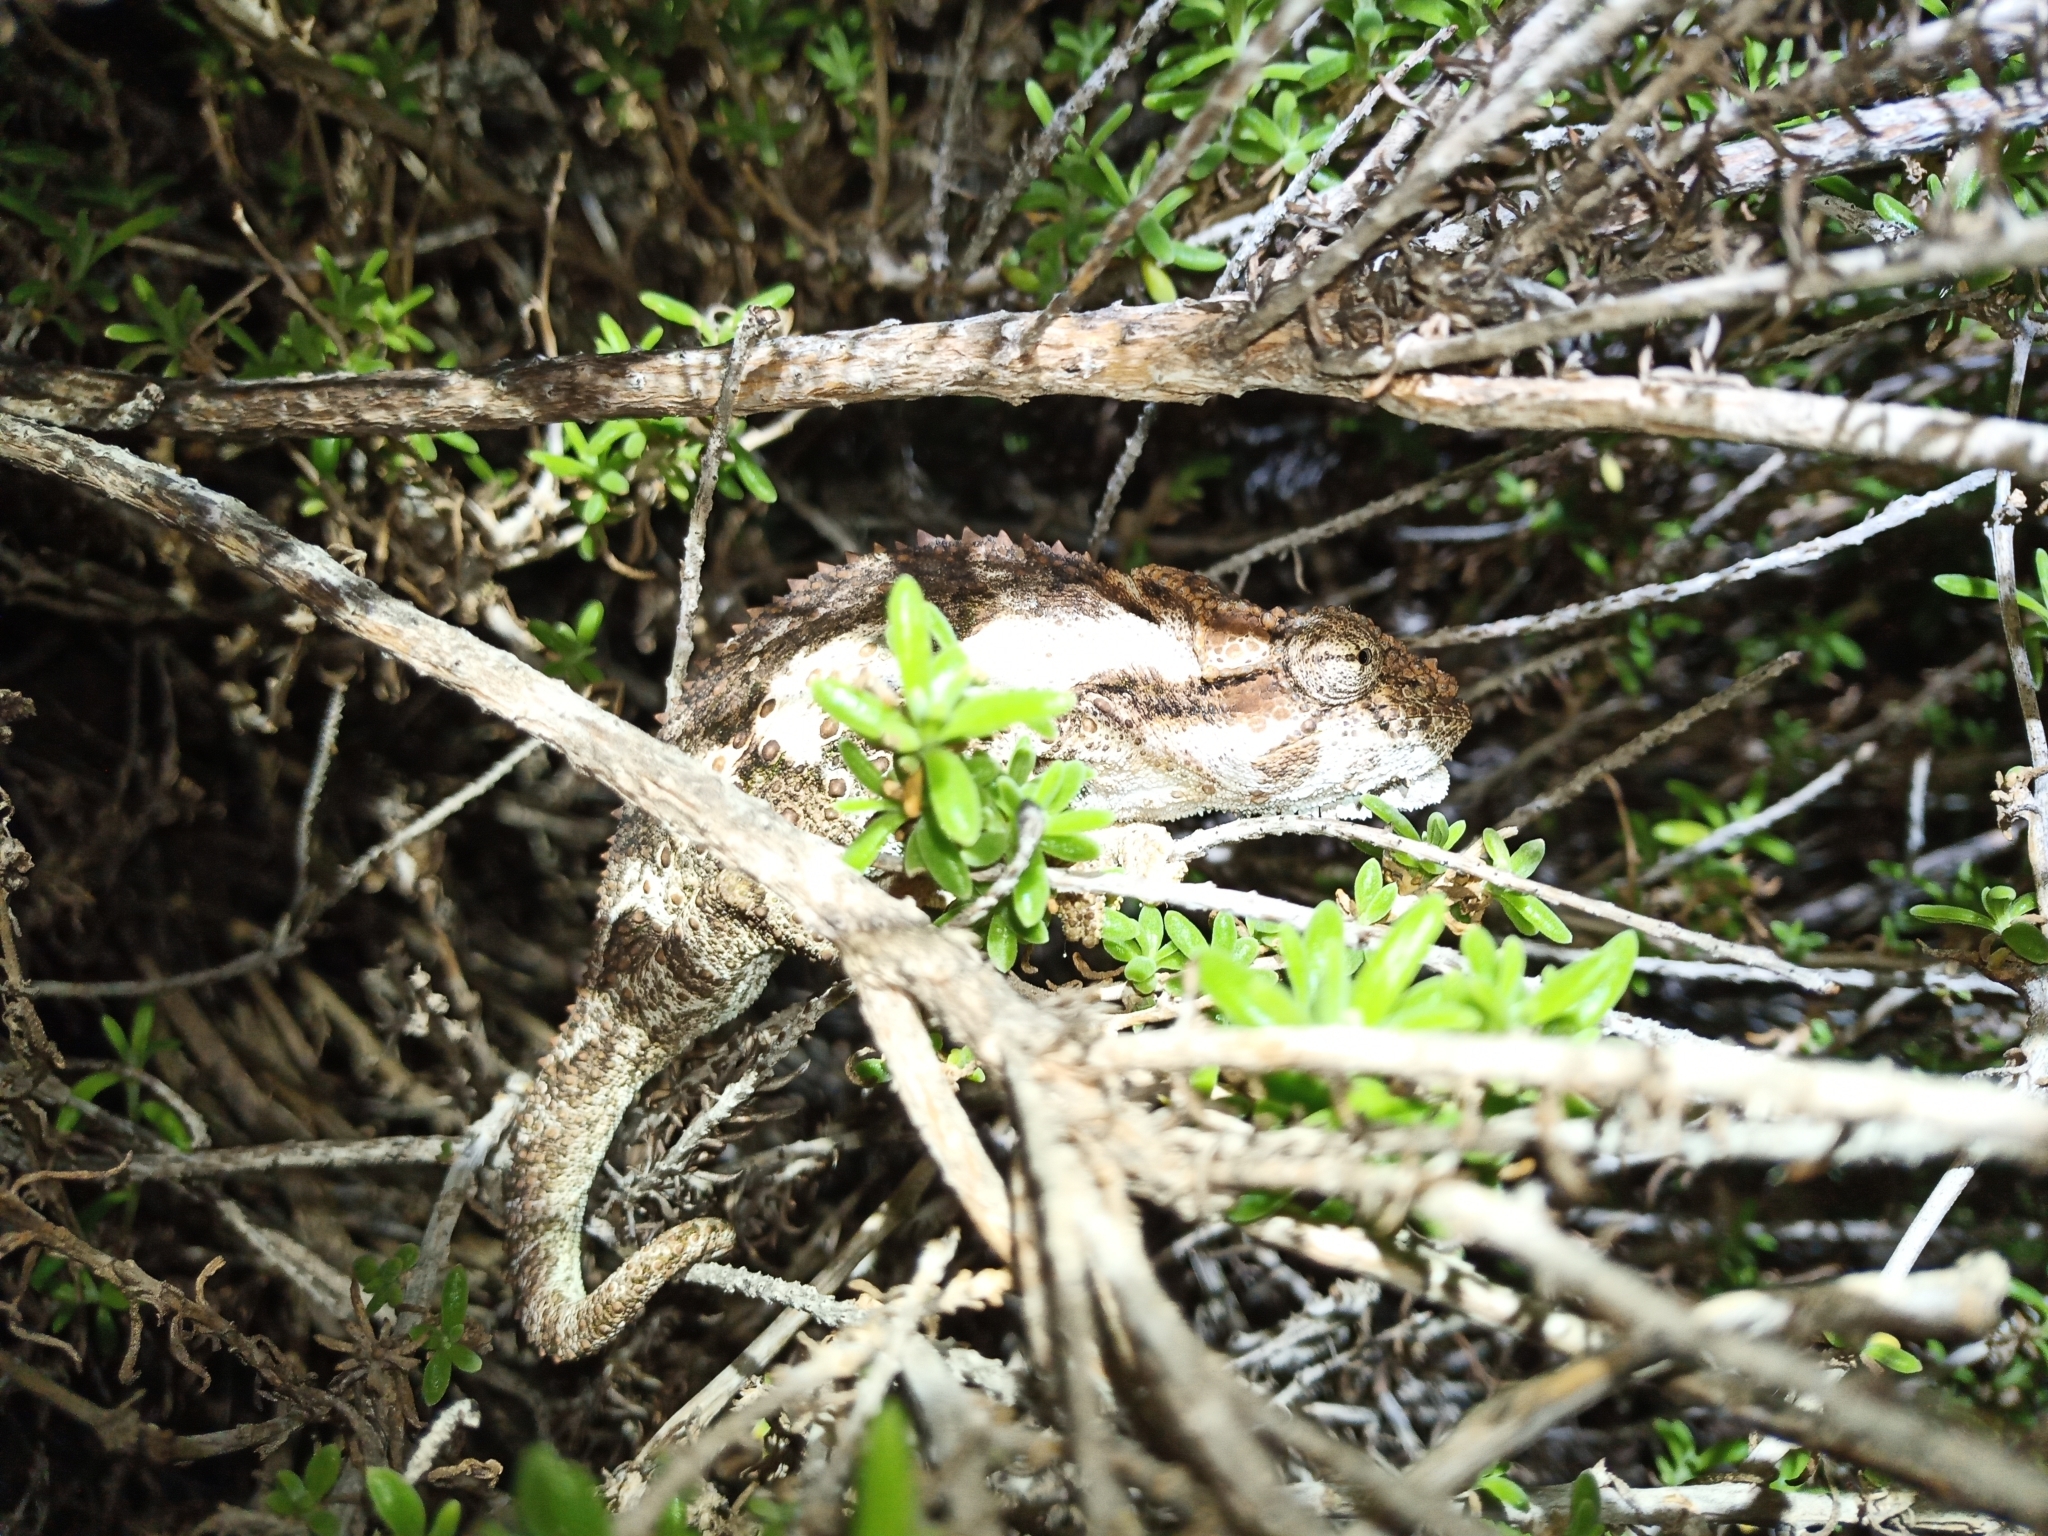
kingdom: Animalia
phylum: Chordata
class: Squamata
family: Chamaeleonidae
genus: Bradypodion
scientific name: Bradypodion ventrale
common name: Eastern cape dwarf chameleon
